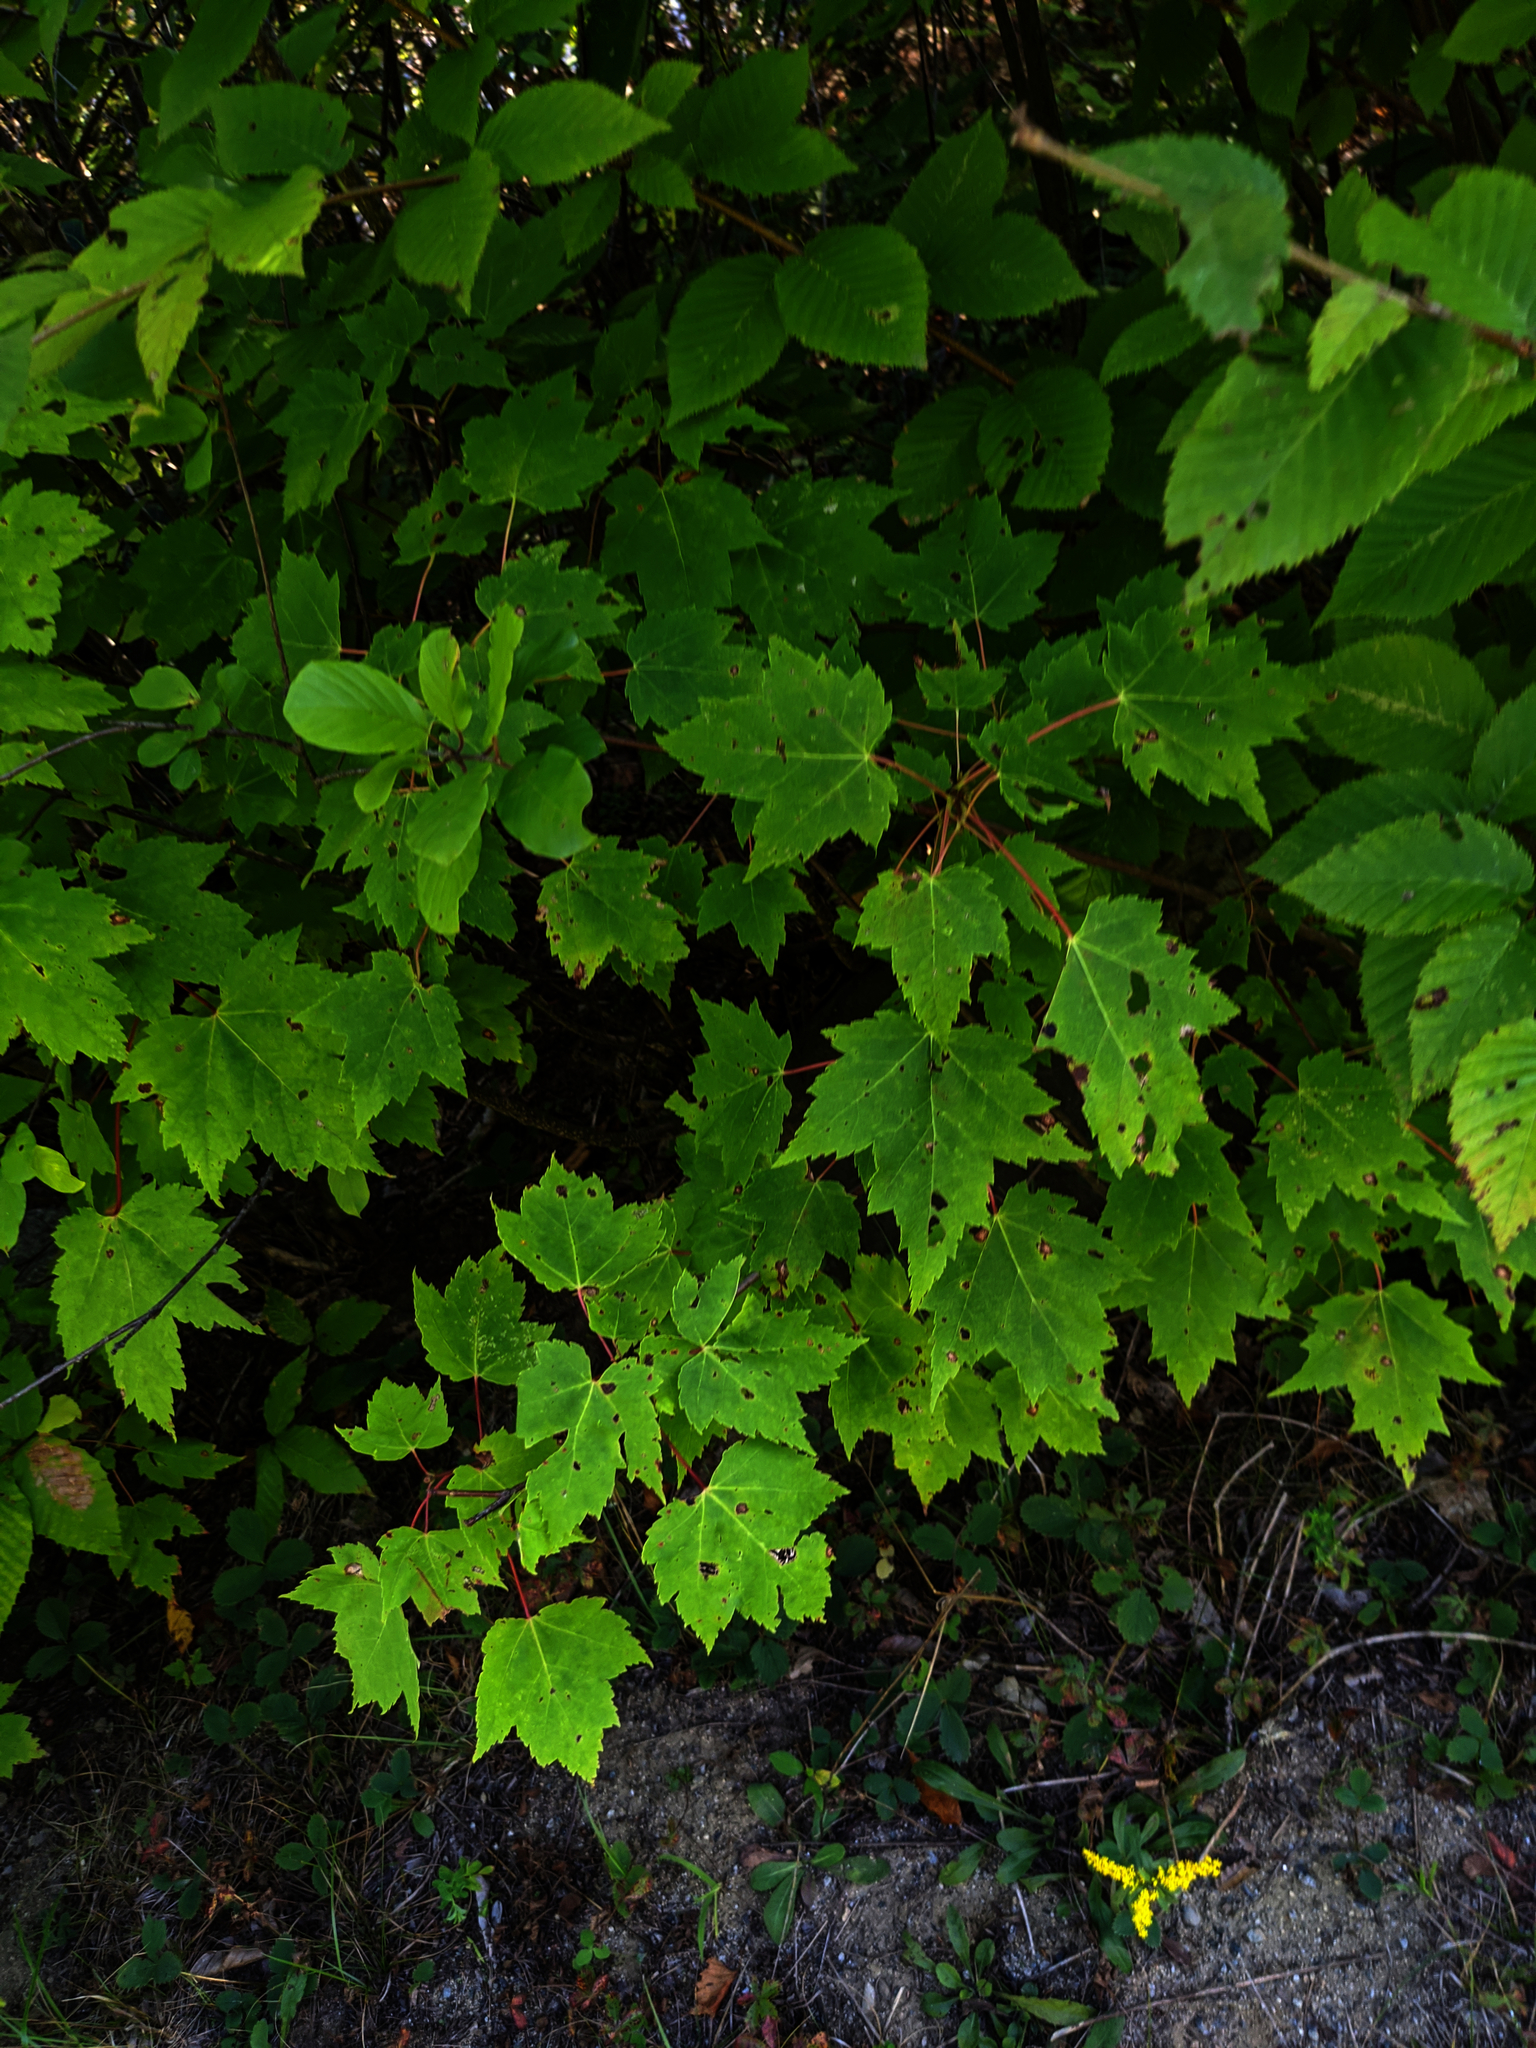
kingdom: Plantae
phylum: Tracheophyta
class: Magnoliopsida
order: Sapindales
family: Sapindaceae
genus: Acer
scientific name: Acer rubrum
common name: Red maple
